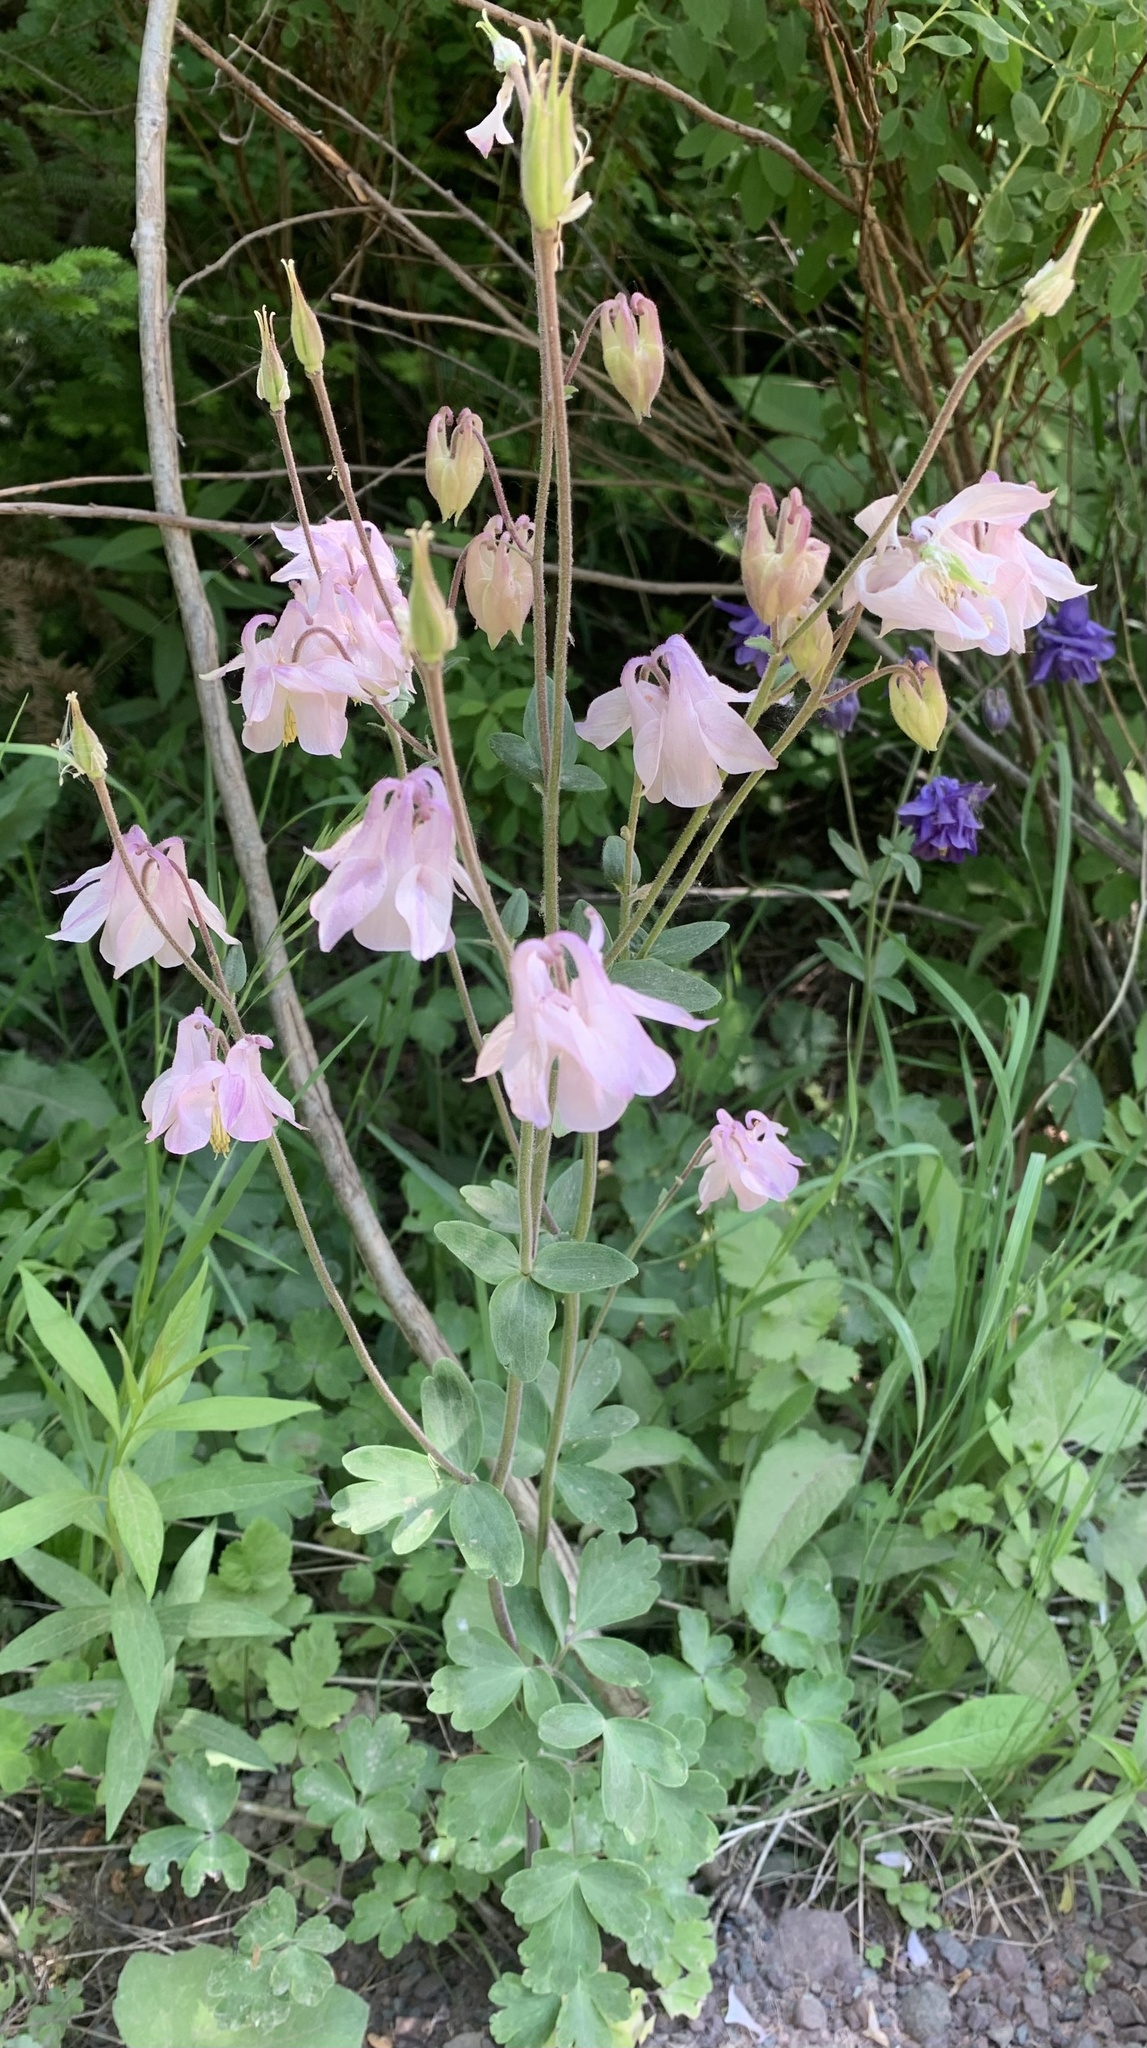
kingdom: Plantae
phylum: Tracheophyta
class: Magnoliopsida
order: Ranunculales
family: Ranunculaceae
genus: Aquilegia
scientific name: Aquilegia vulgaris
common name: Columbine
